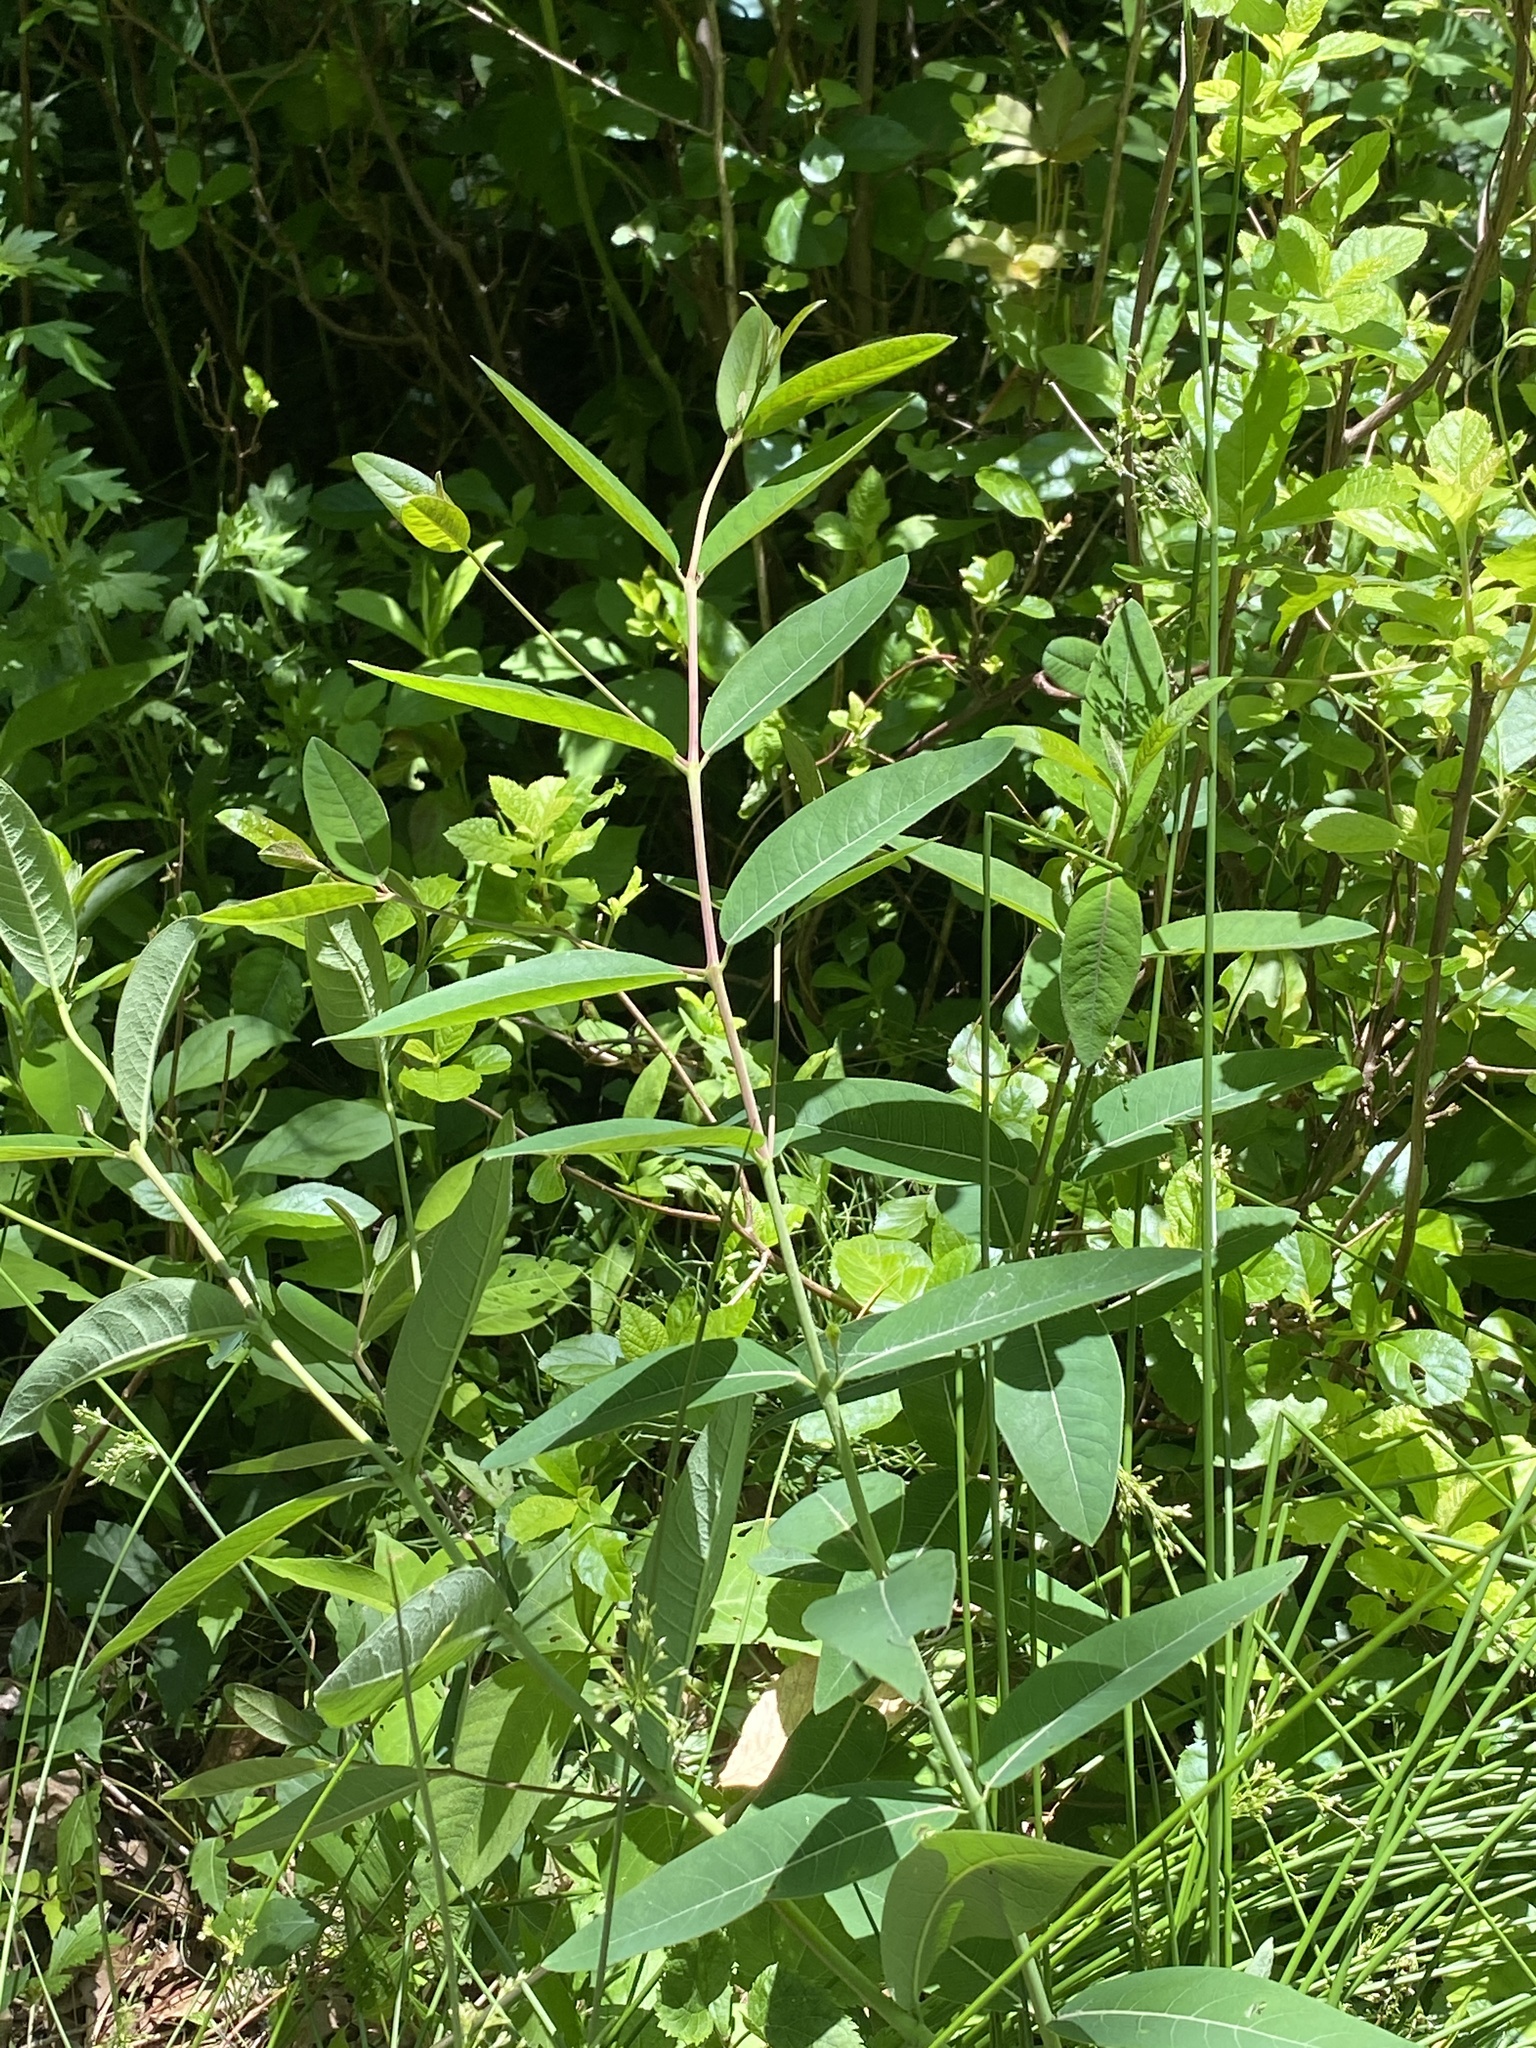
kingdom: Plantae
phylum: Tracheophyta
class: Magnoliopsida
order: Gentianales
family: Apocynaceae
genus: Apocynum
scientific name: Apocynum cannabinum
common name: Hemp dogbane
